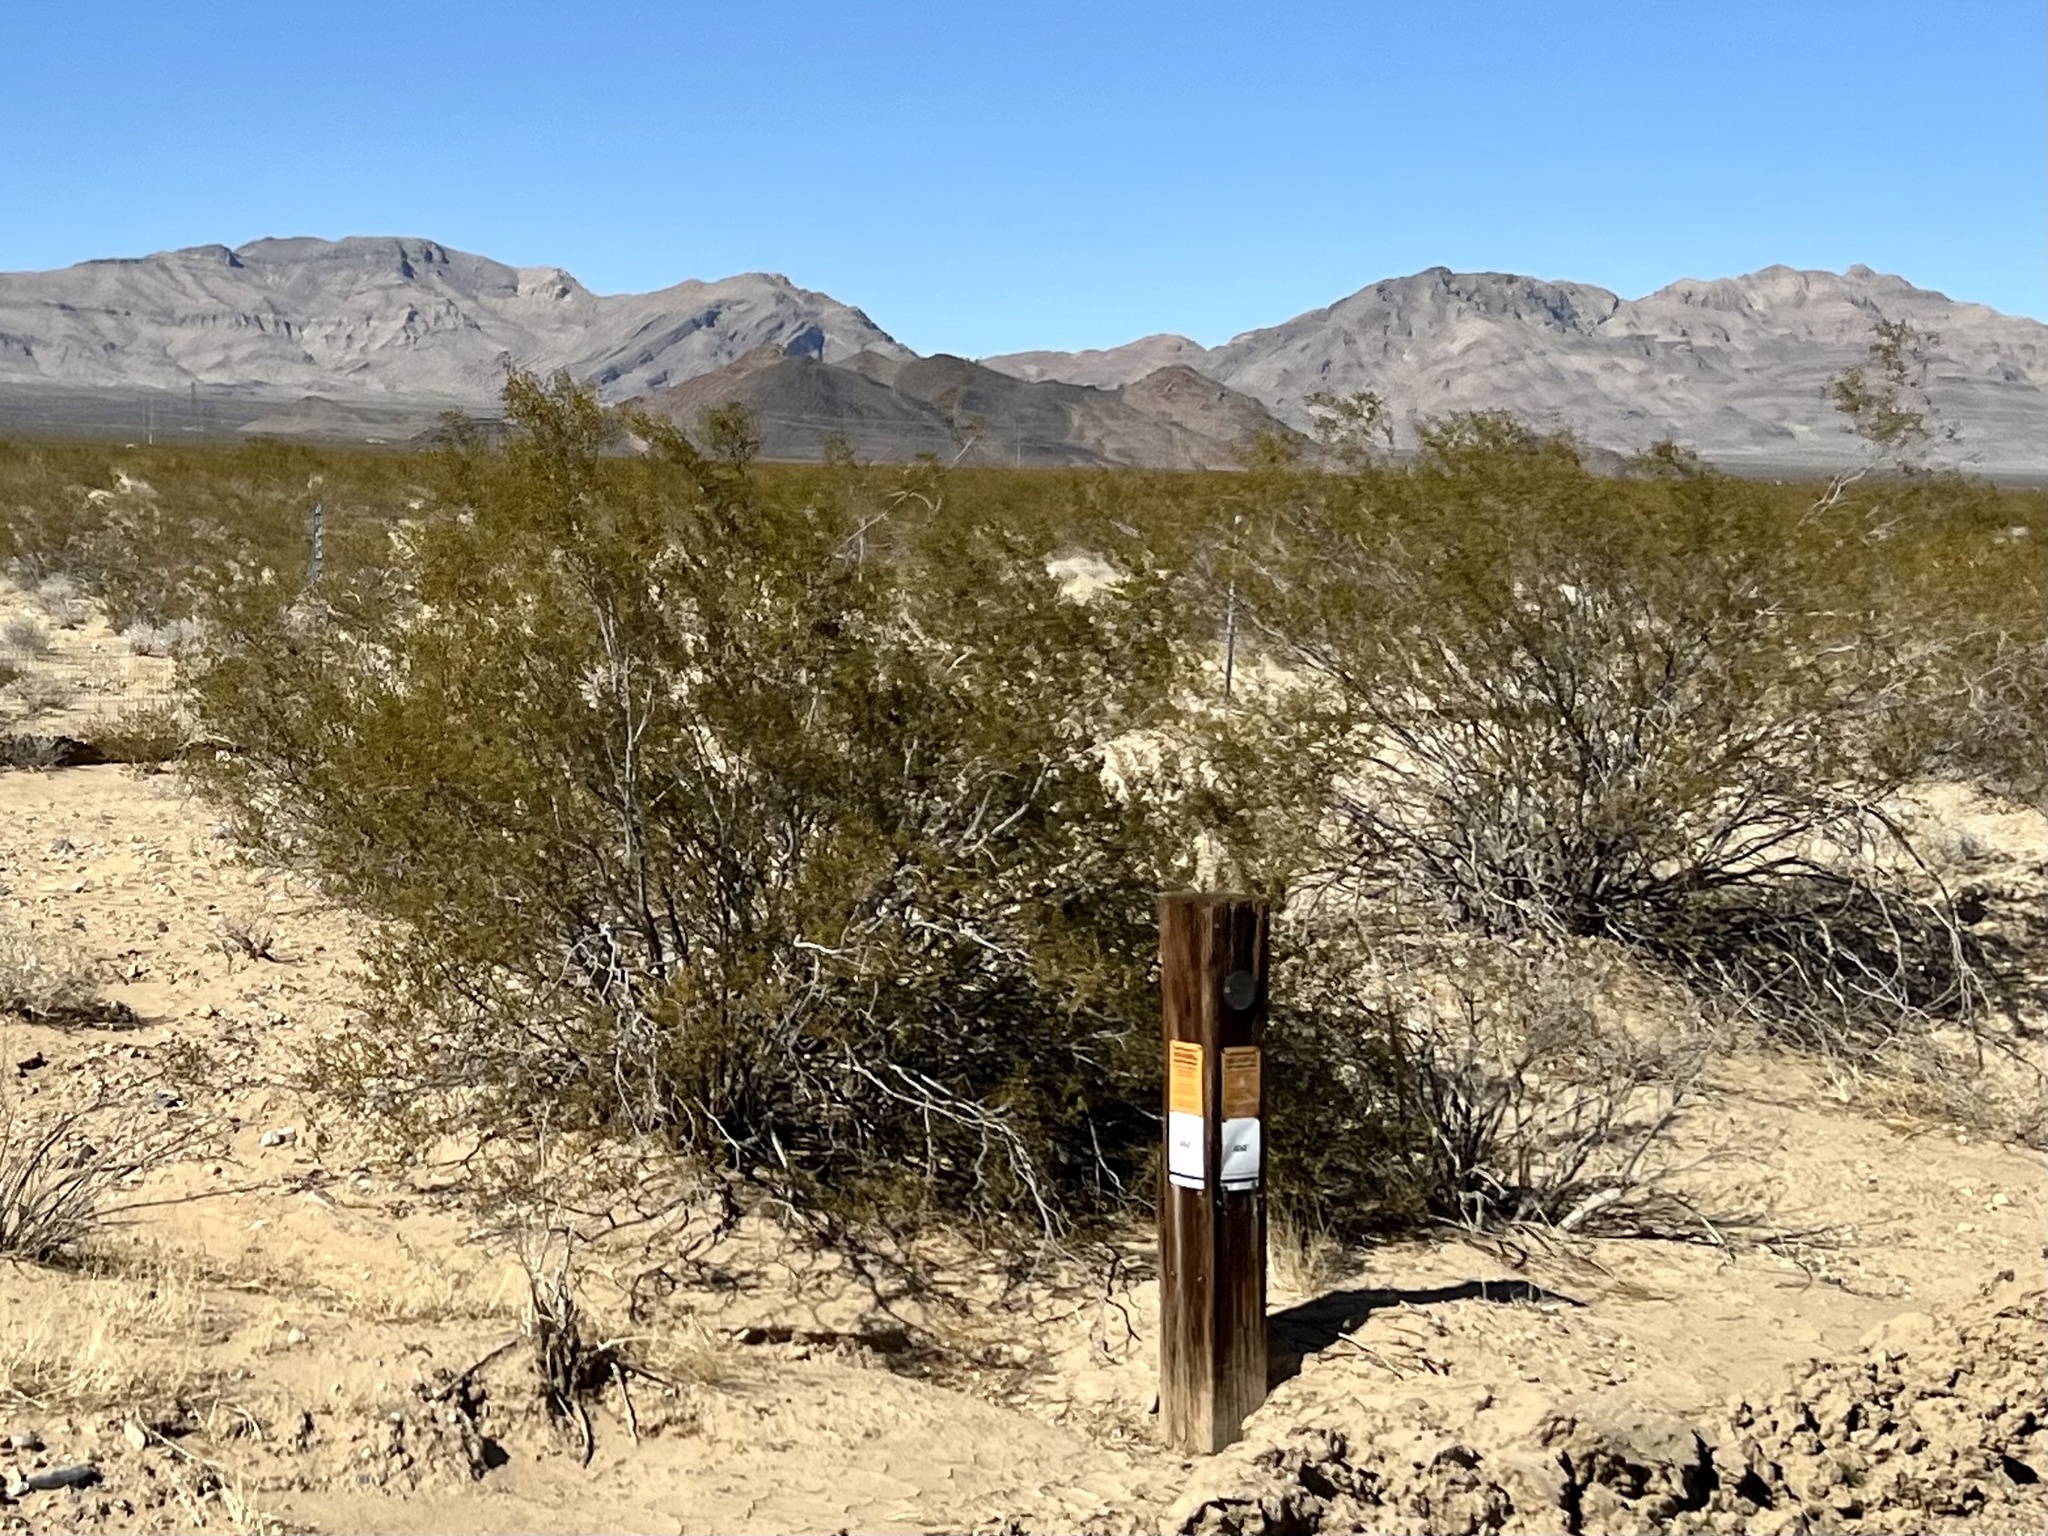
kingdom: Plantae
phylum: Tracheophyta
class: Magnoliopsida
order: Zygophyllales
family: Zygophyllaceae
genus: Larrea
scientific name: Larrea tridentata
